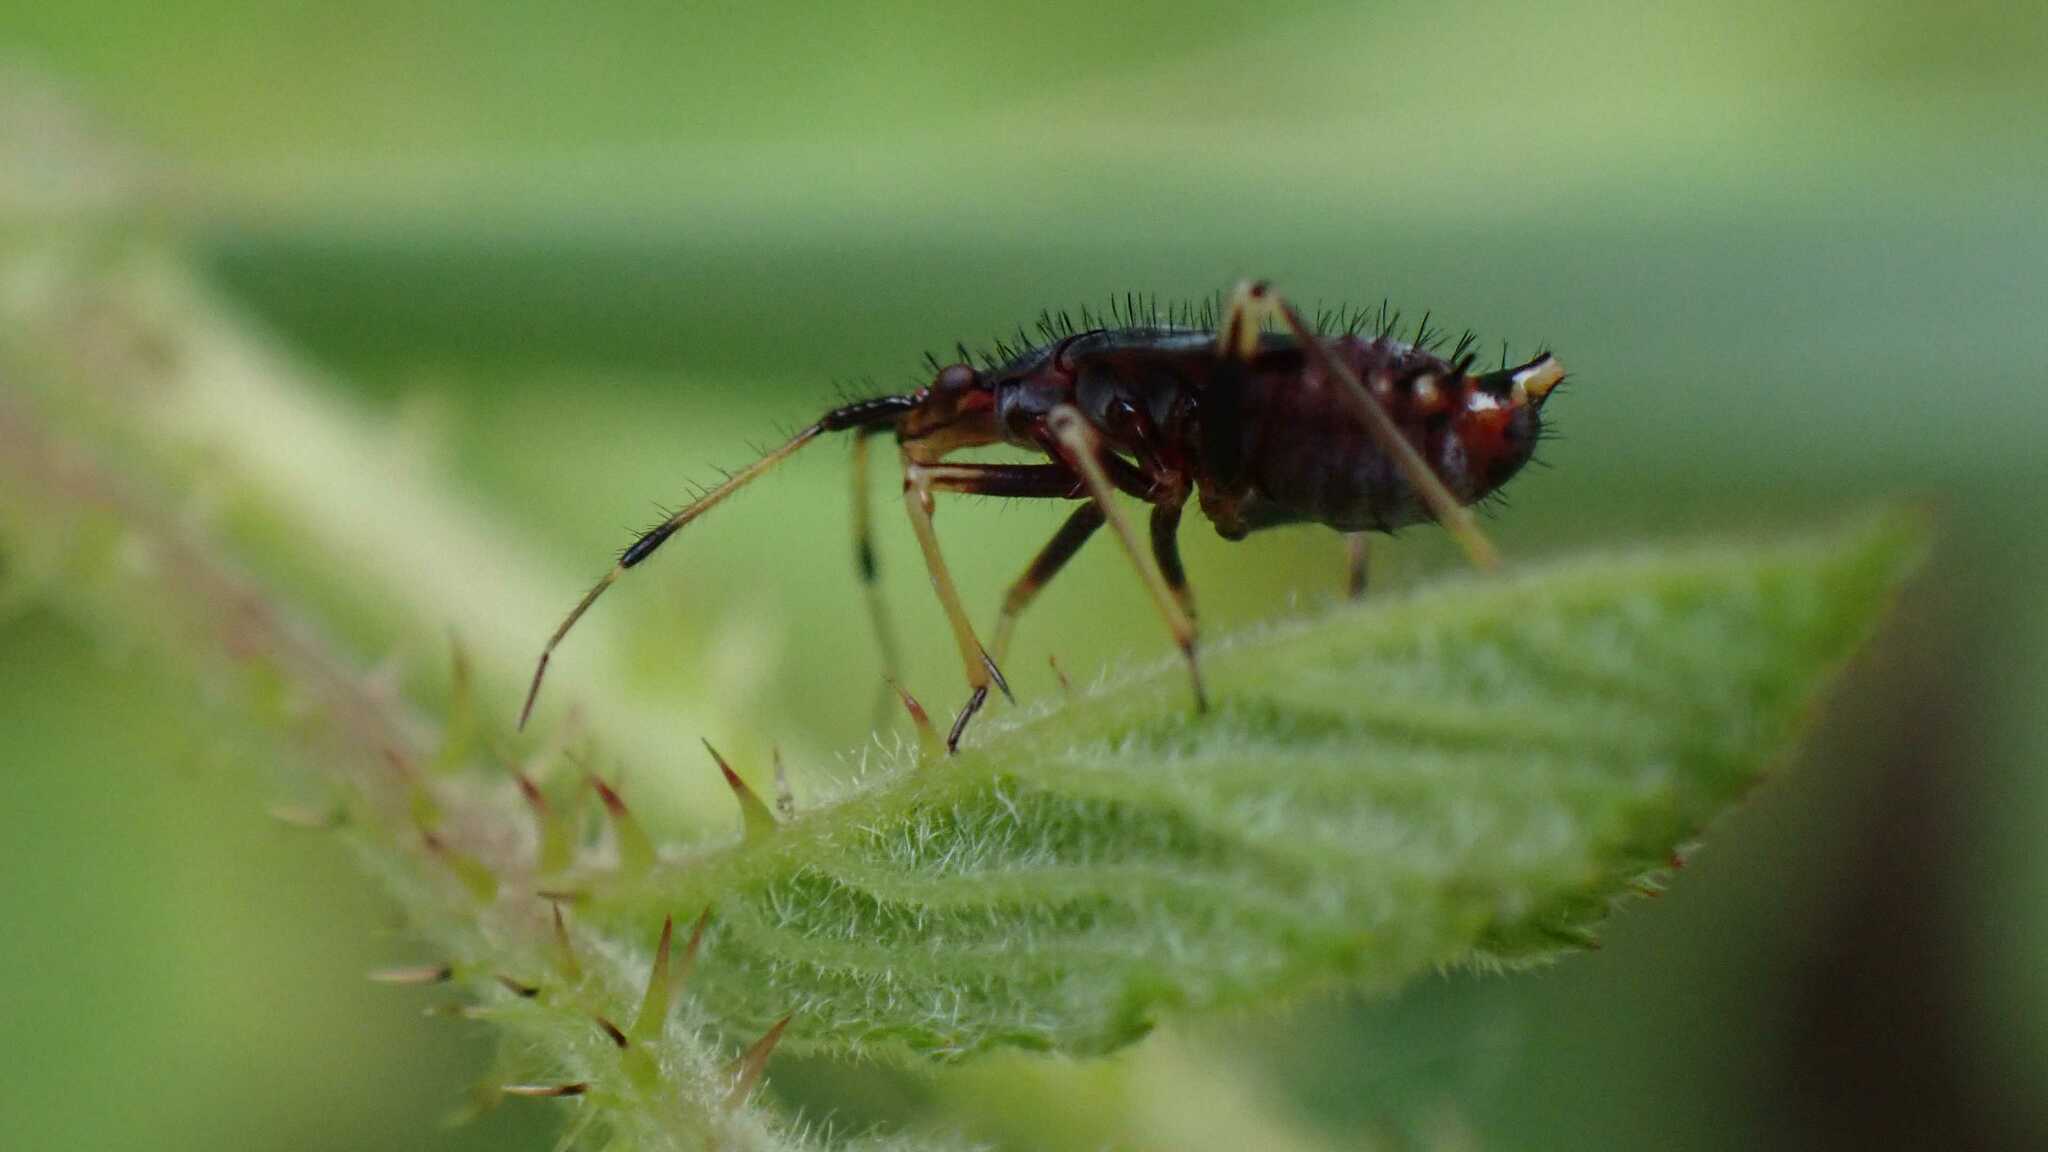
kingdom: Animalia
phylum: Arthropoda
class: Insecta
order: Hemiptera
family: Miridae
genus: Deraeocoris
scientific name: Deraeocoris ruber
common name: Plant bug
